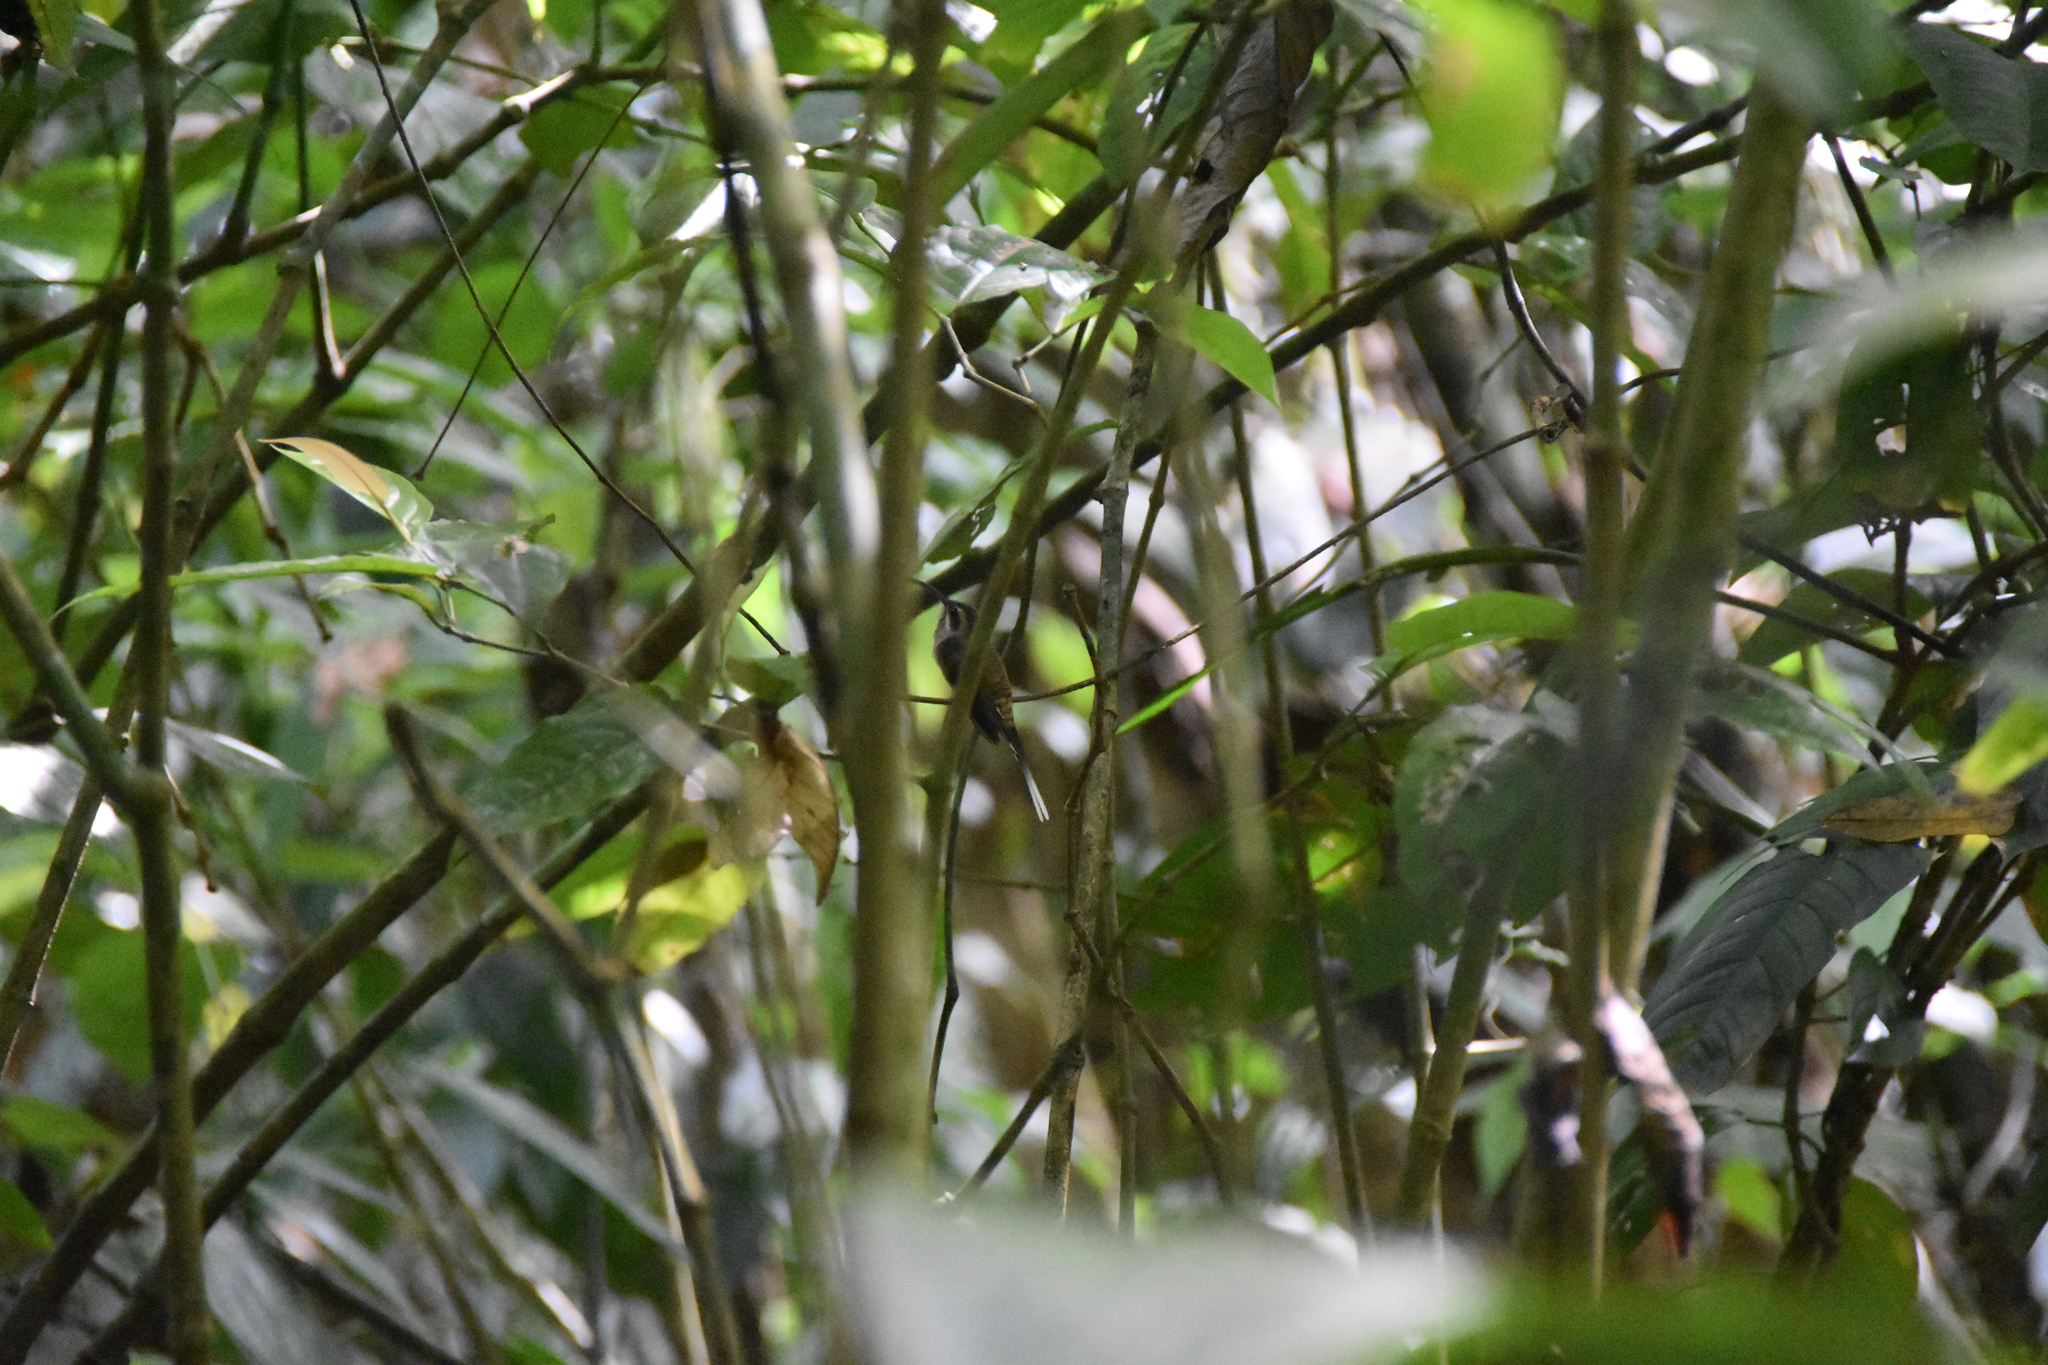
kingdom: Animalia
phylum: Chordata
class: Aves
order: Apodiformes
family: Trochilidae
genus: Phaethornis
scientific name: Phaethornis longirostris
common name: Long-billed hermit
